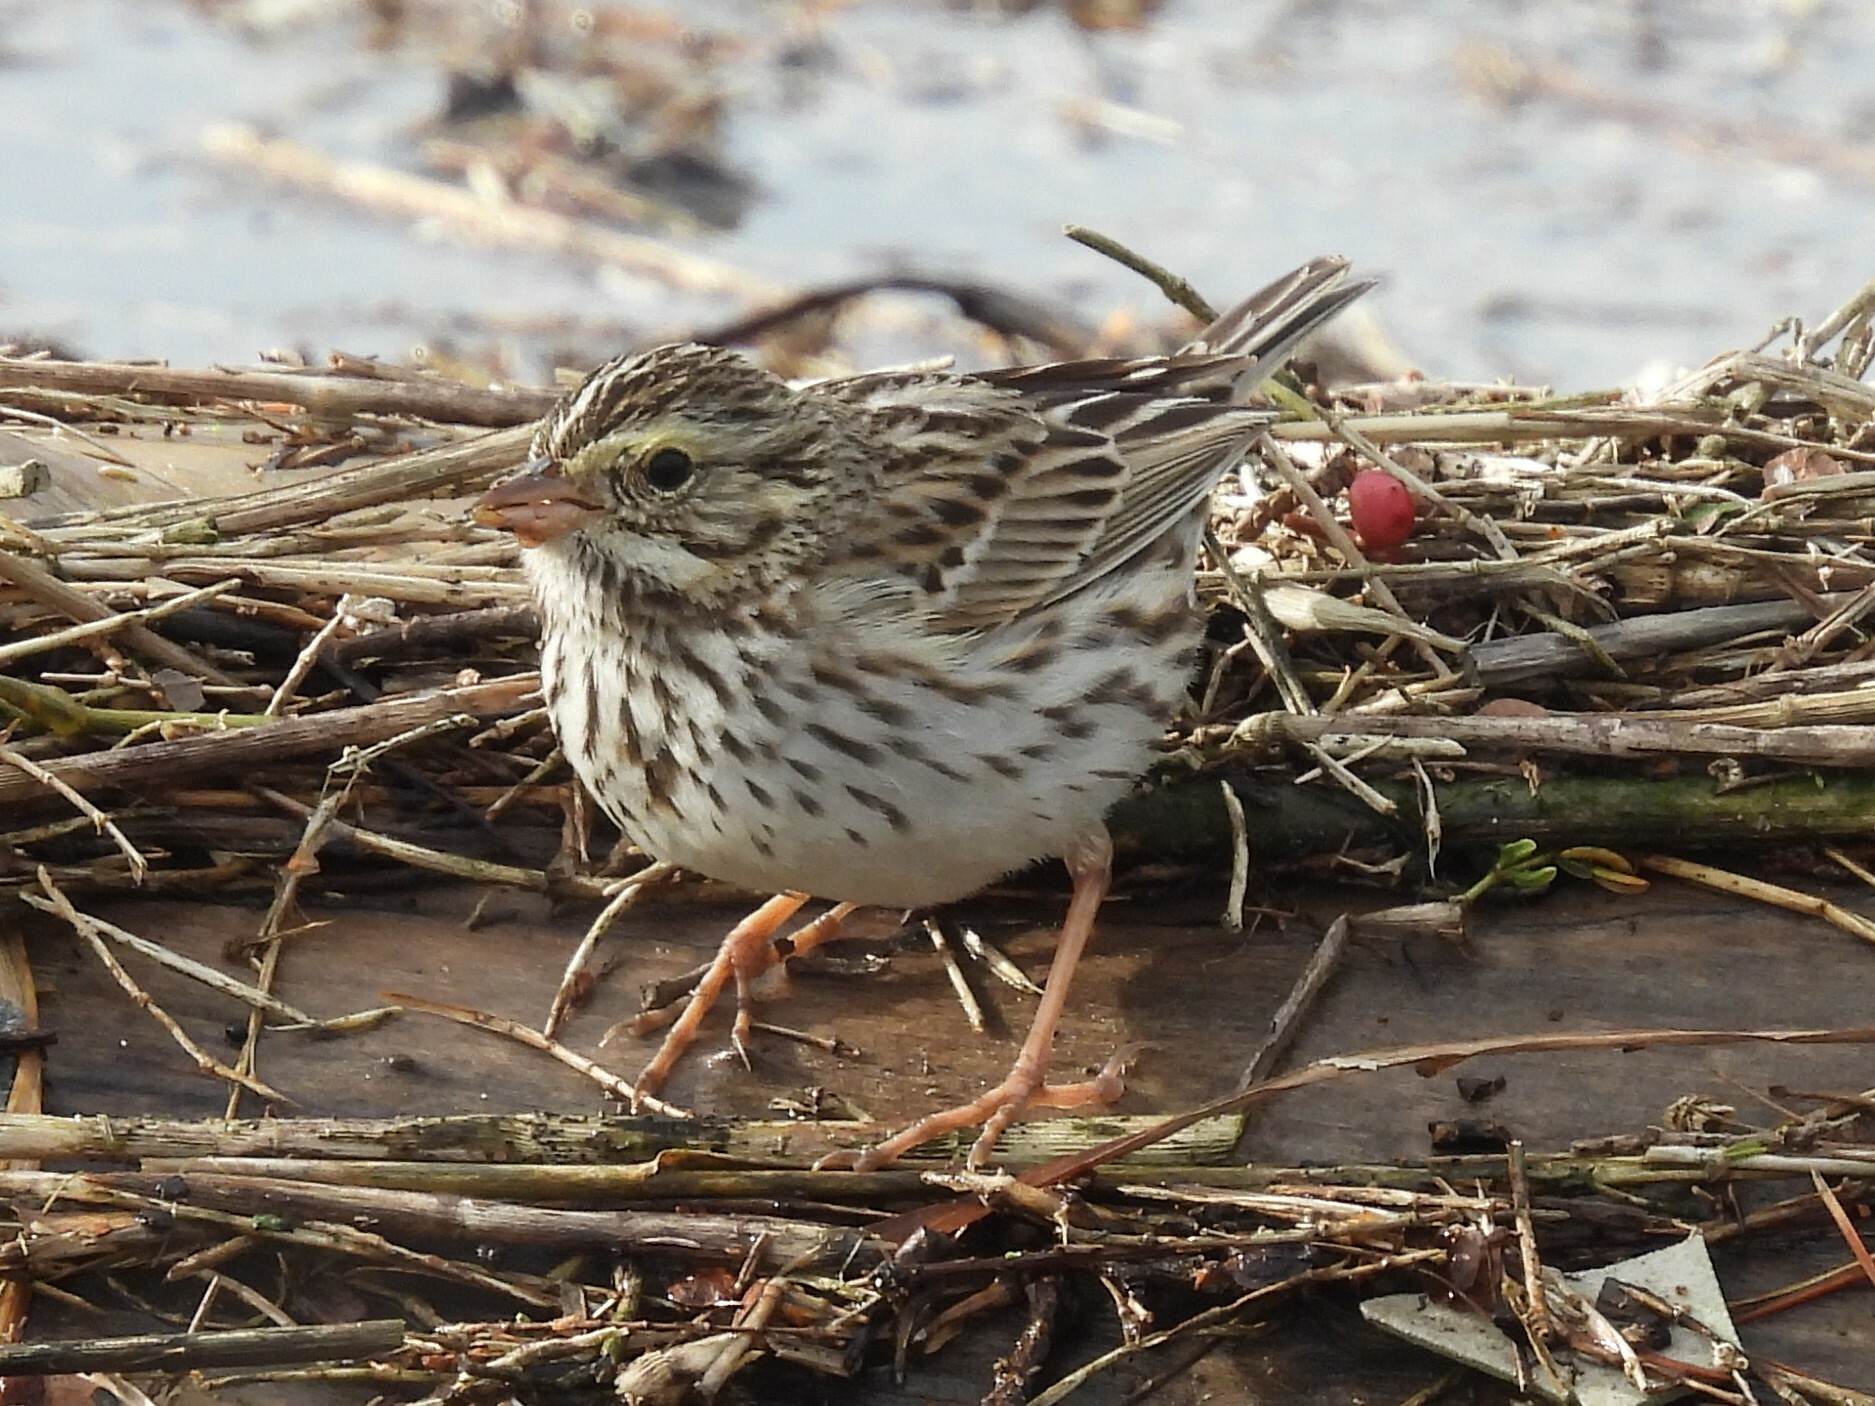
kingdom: Animalia
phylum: Chordata
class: Aves
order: Passeriformes
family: Passerellidae
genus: Passerculus
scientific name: Passerculus sandwichensis
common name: Savannah sparrow
